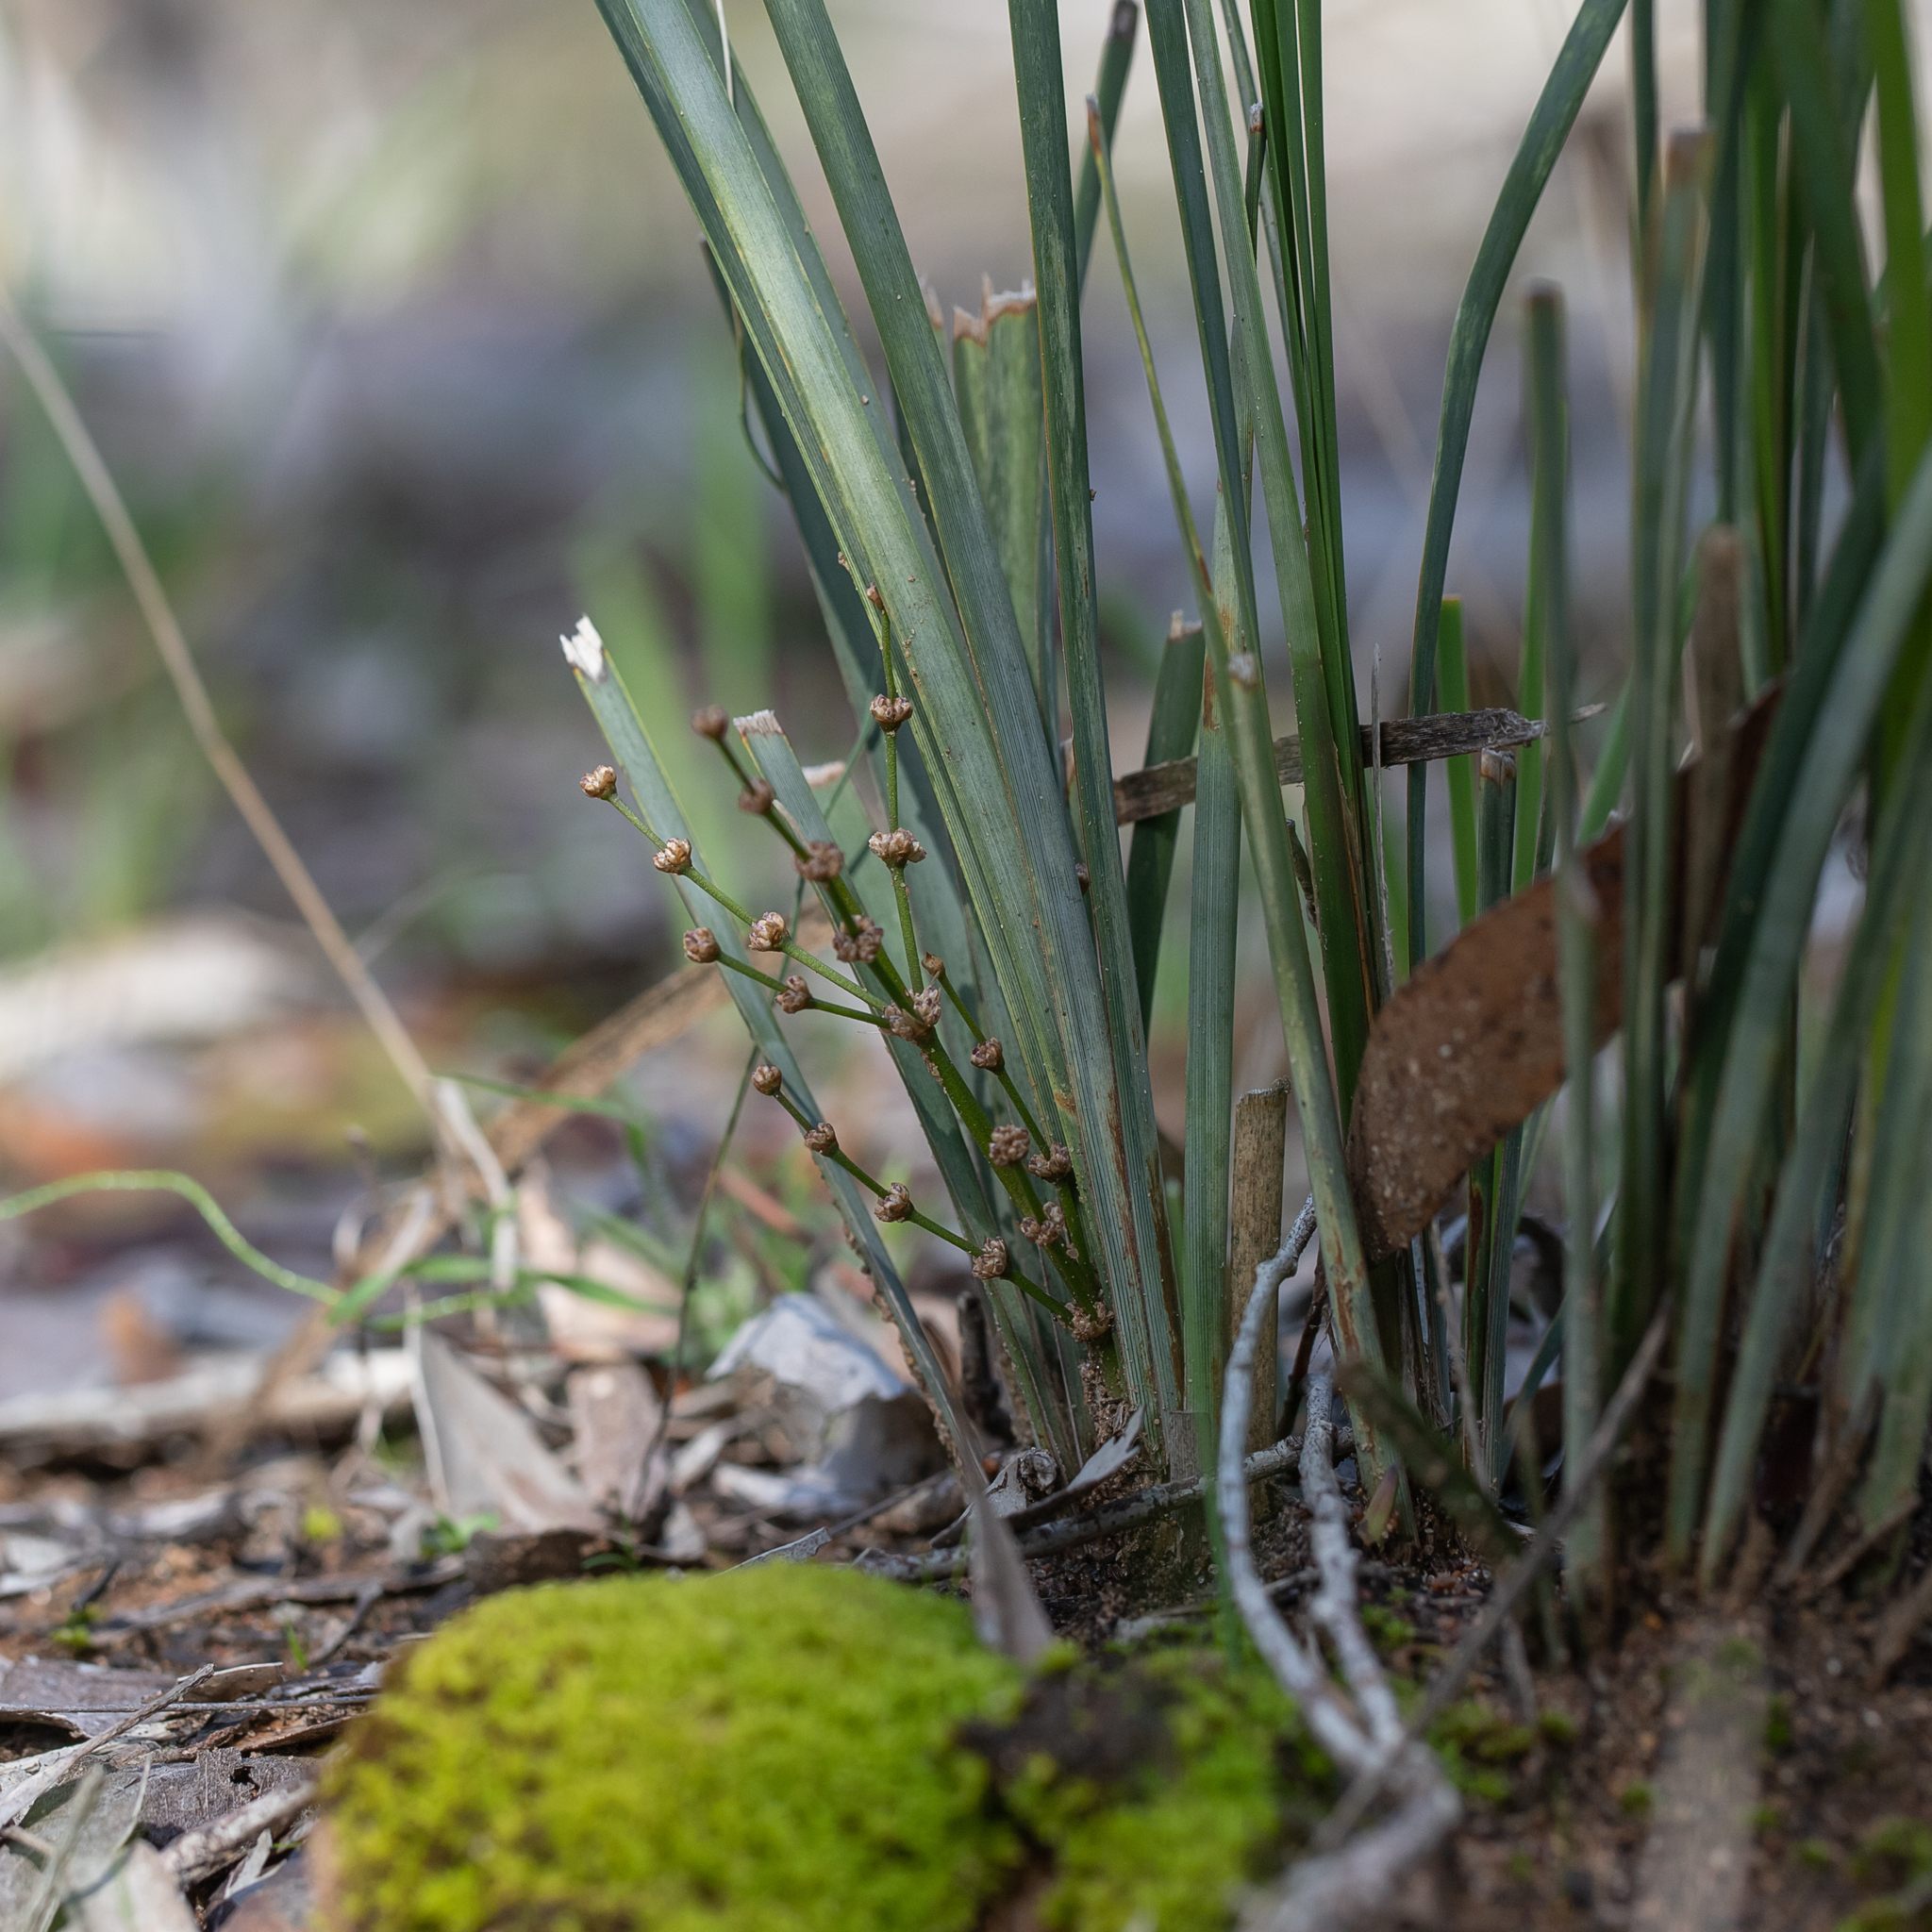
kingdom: Plantae
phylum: Tracheophyta
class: Liliopsida
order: Asparagales
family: Asparagaceae
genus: Lomandra
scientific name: Lomandra multiflora
